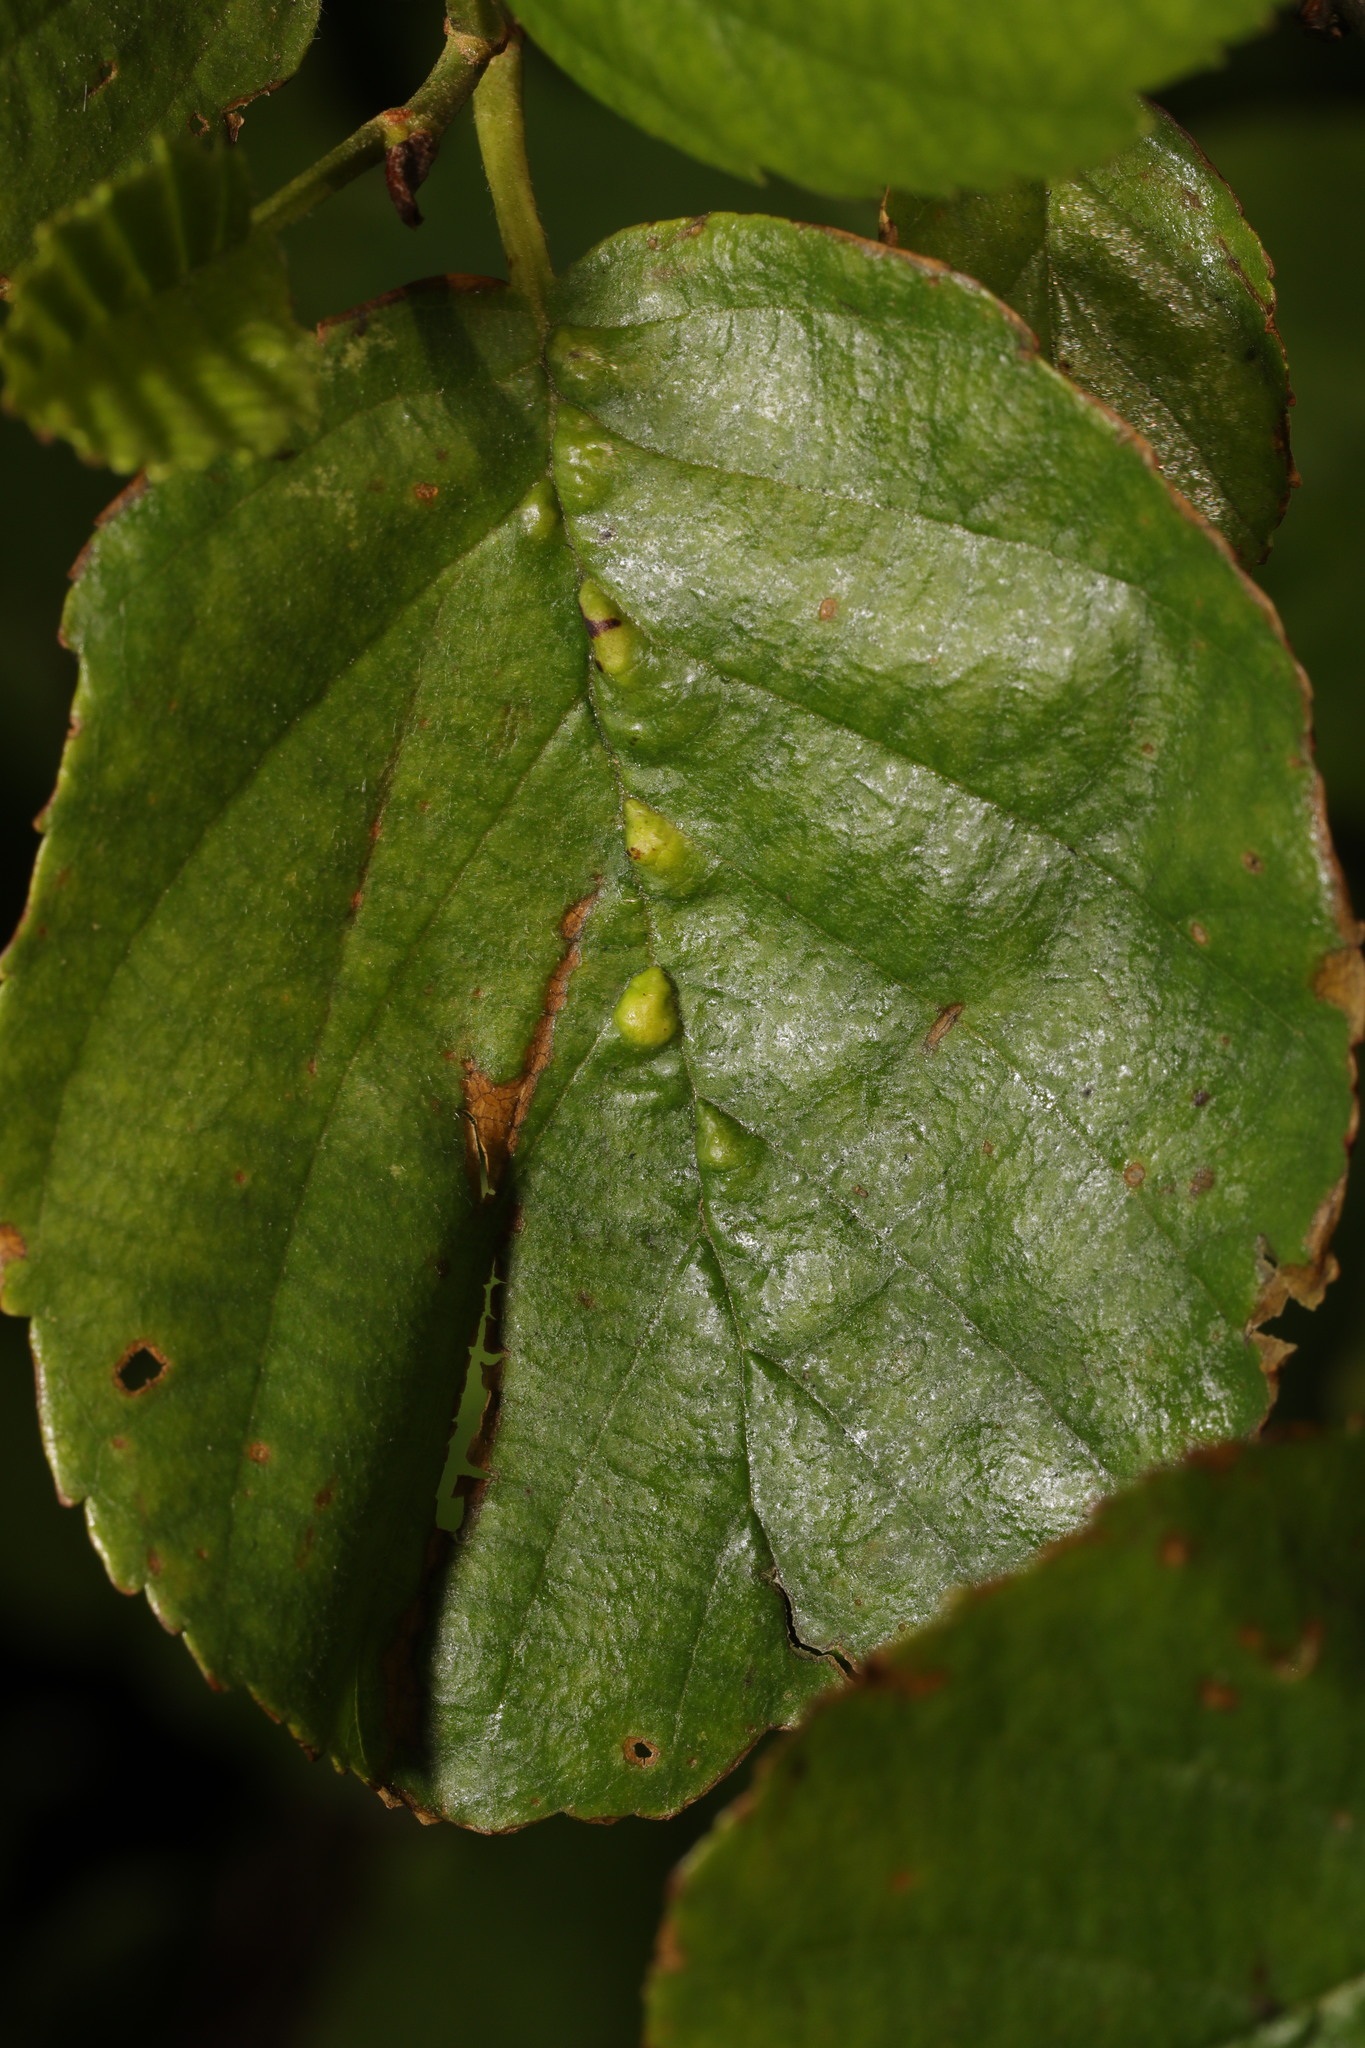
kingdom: Animalia
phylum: Arthropoda
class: Arachnida
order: Trombidiformes
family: Eriophyidae
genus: Eriophyes
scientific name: Eriophyes inangulis
